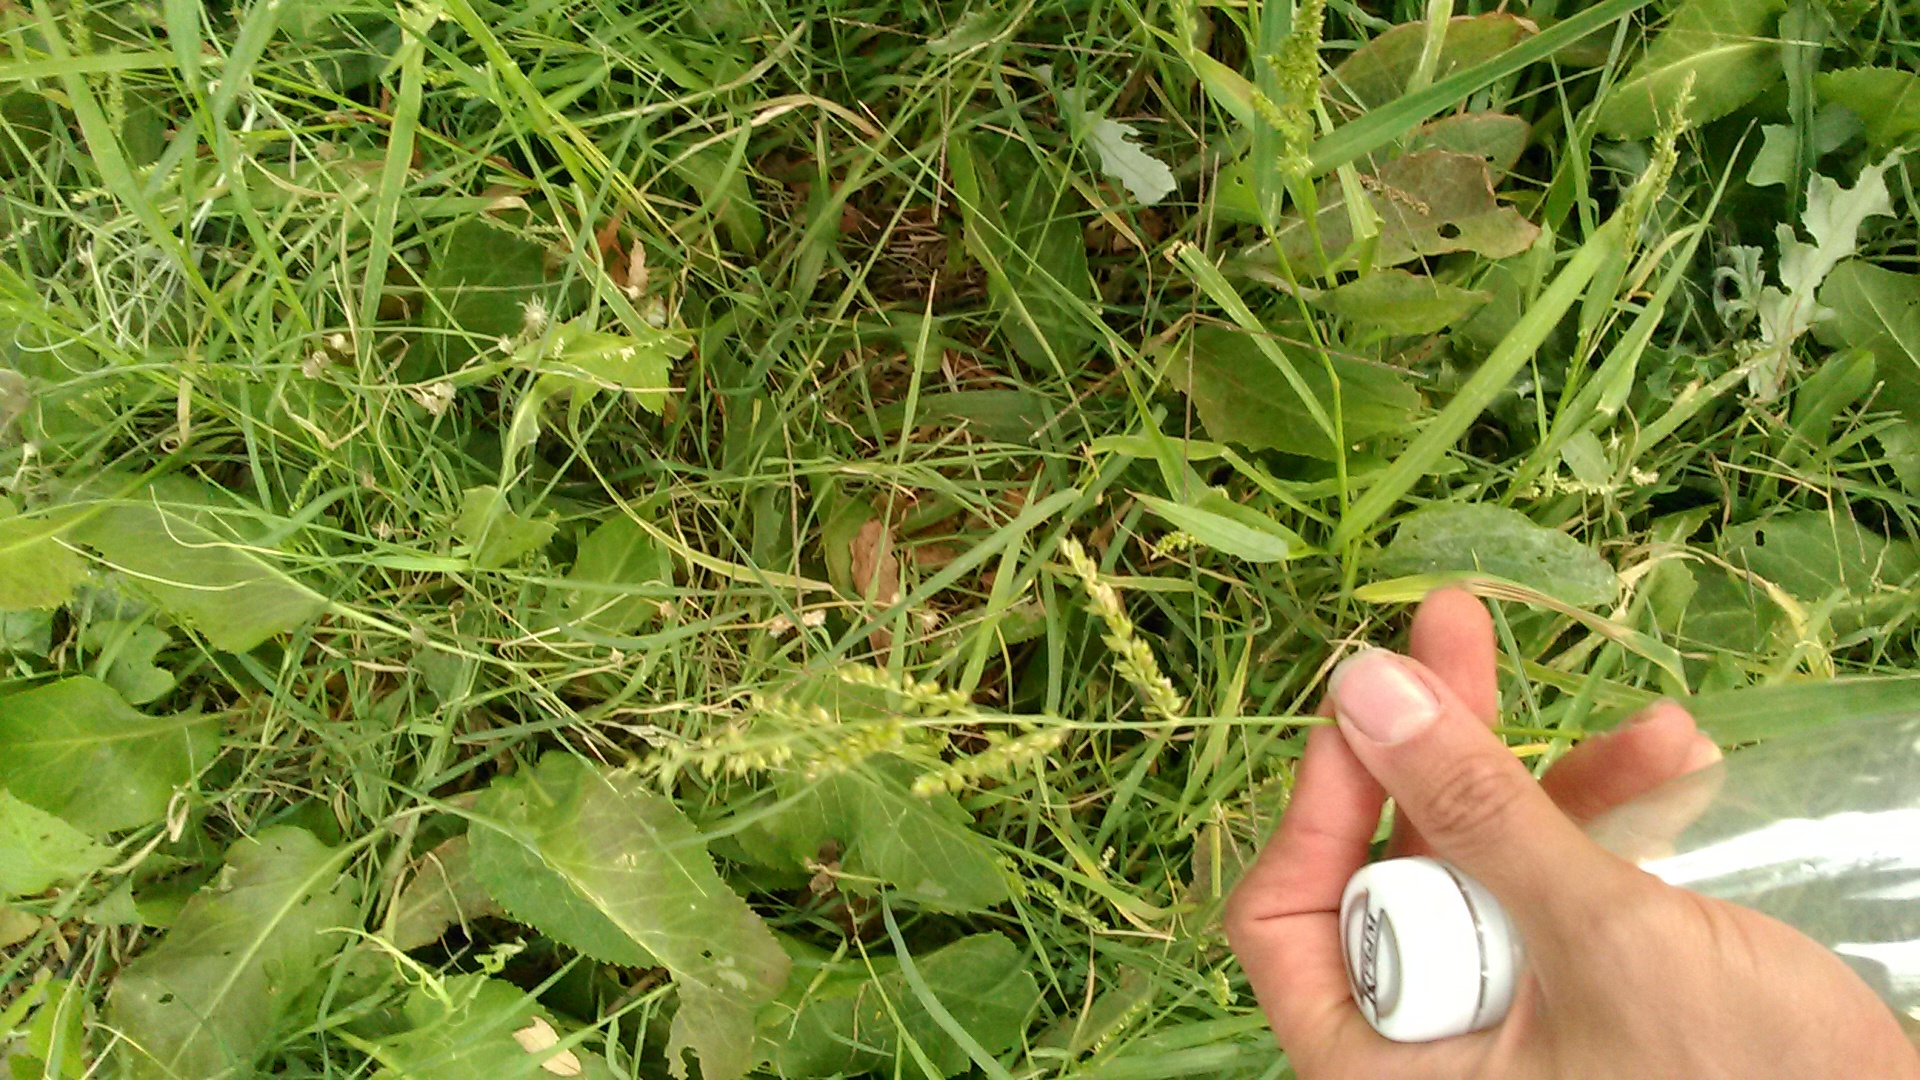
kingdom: Plantae
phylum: Tracheophyta
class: Liliopsida
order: Poales
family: Poaceae
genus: Echinochloa
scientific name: Echinochloa crus-galli
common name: Cockspur
